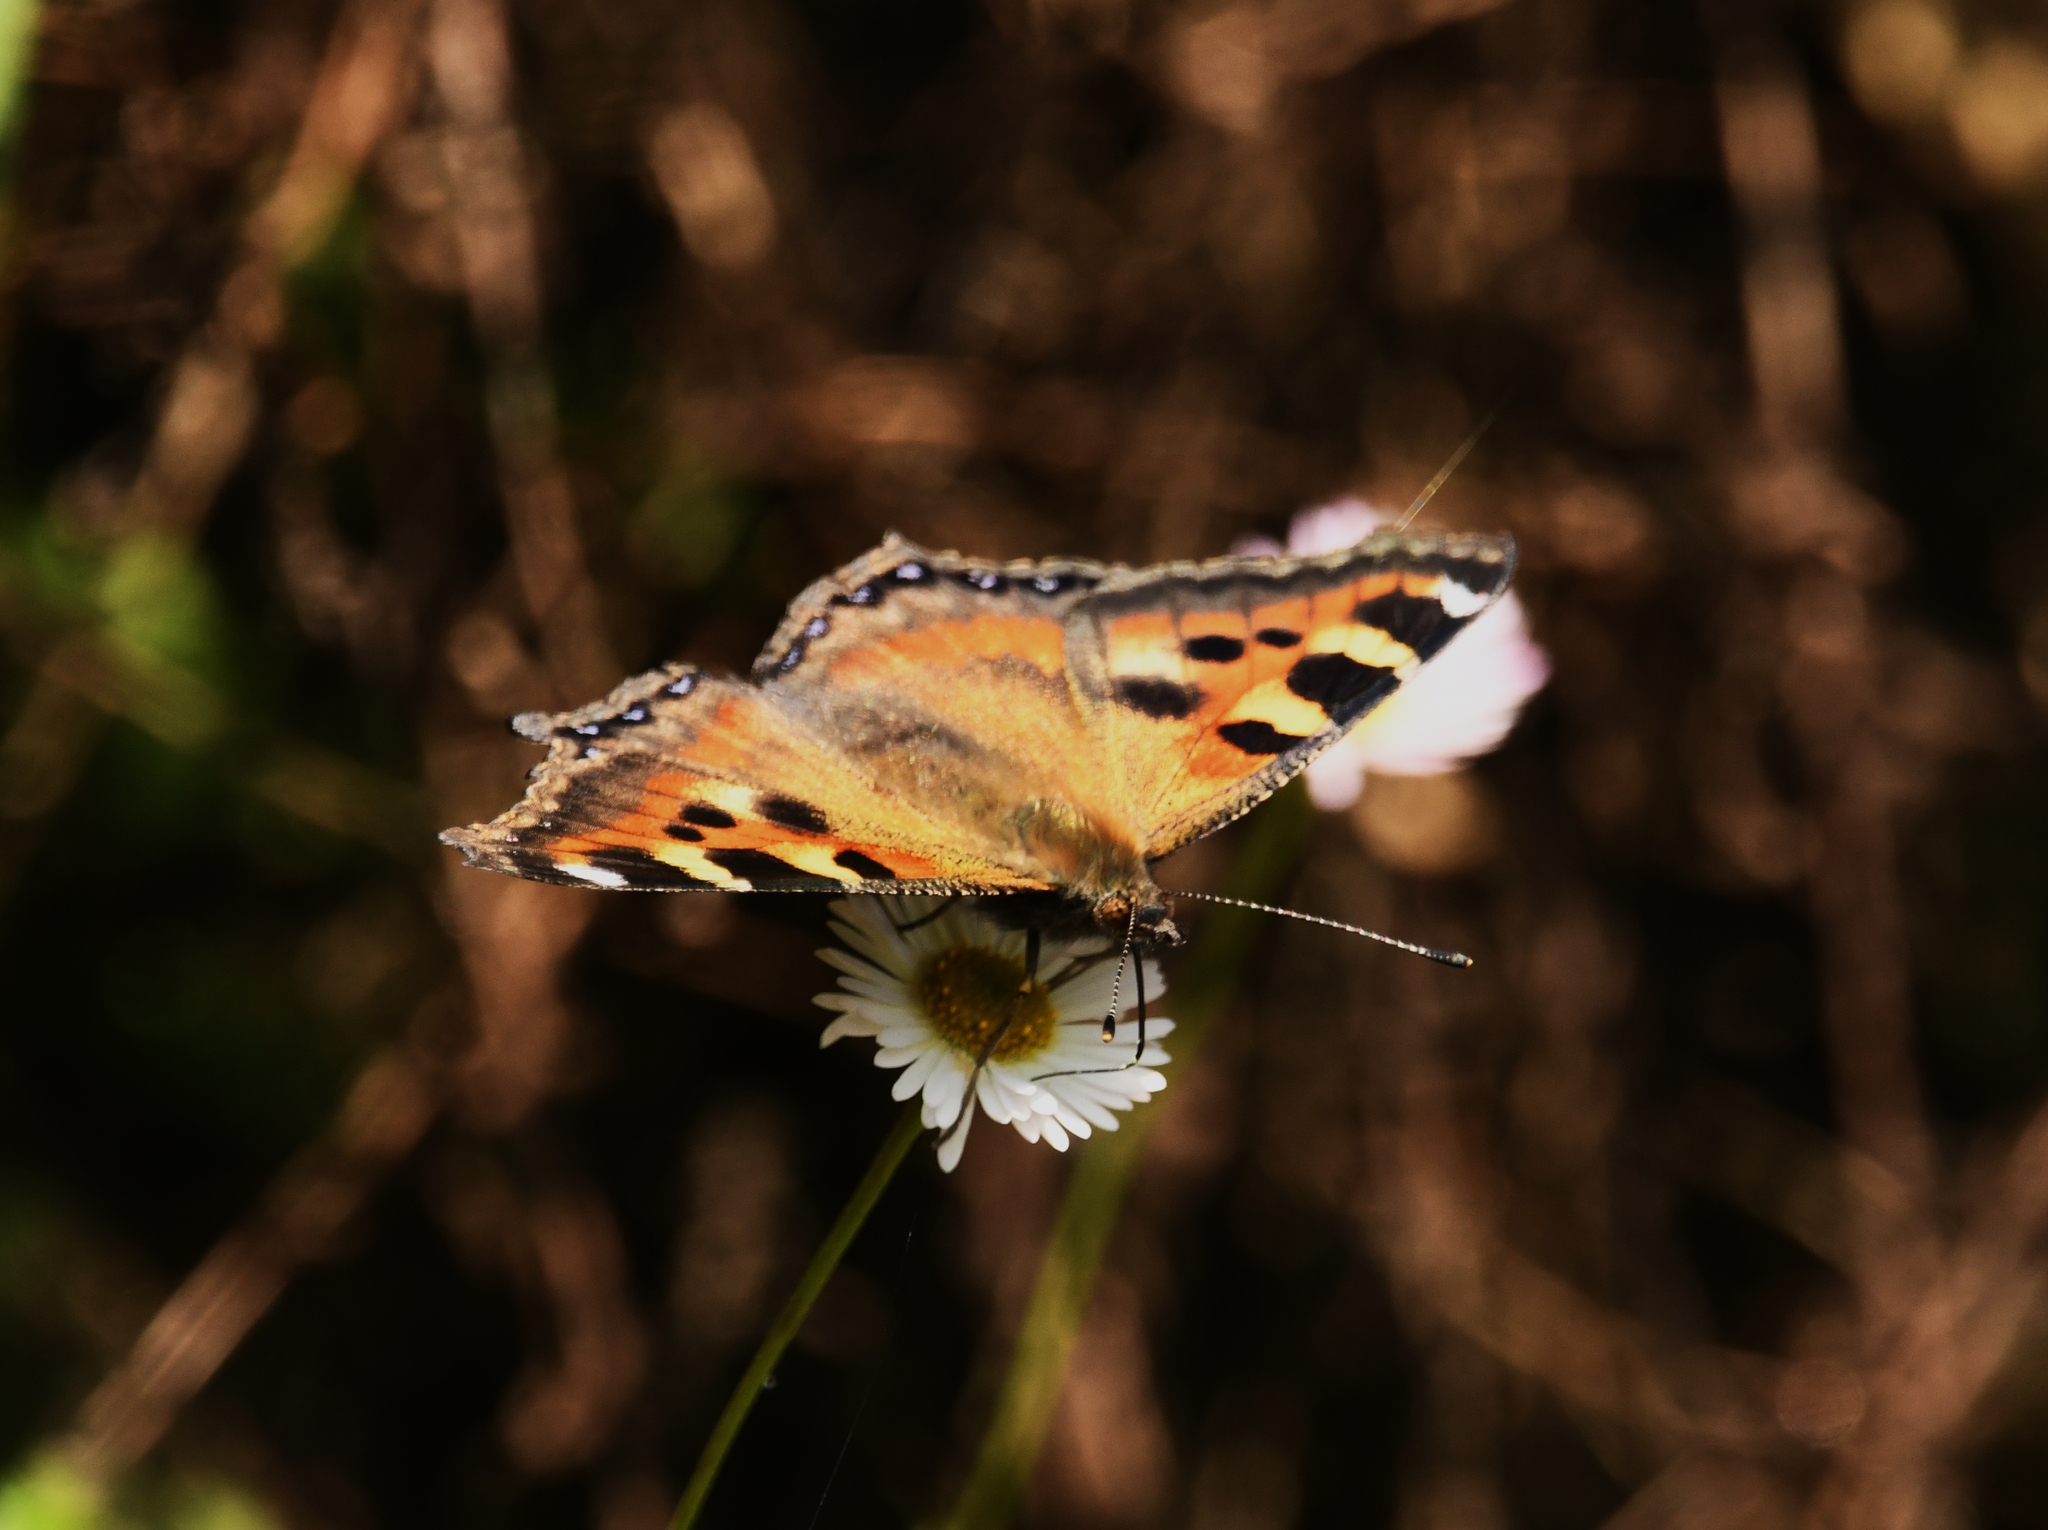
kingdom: Animalia
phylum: Arthropoda
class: Insecta
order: Lepidoptera
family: Nymphalidae
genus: Aglais
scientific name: Aglais caschmirensis
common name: Indian tortoiseshell
